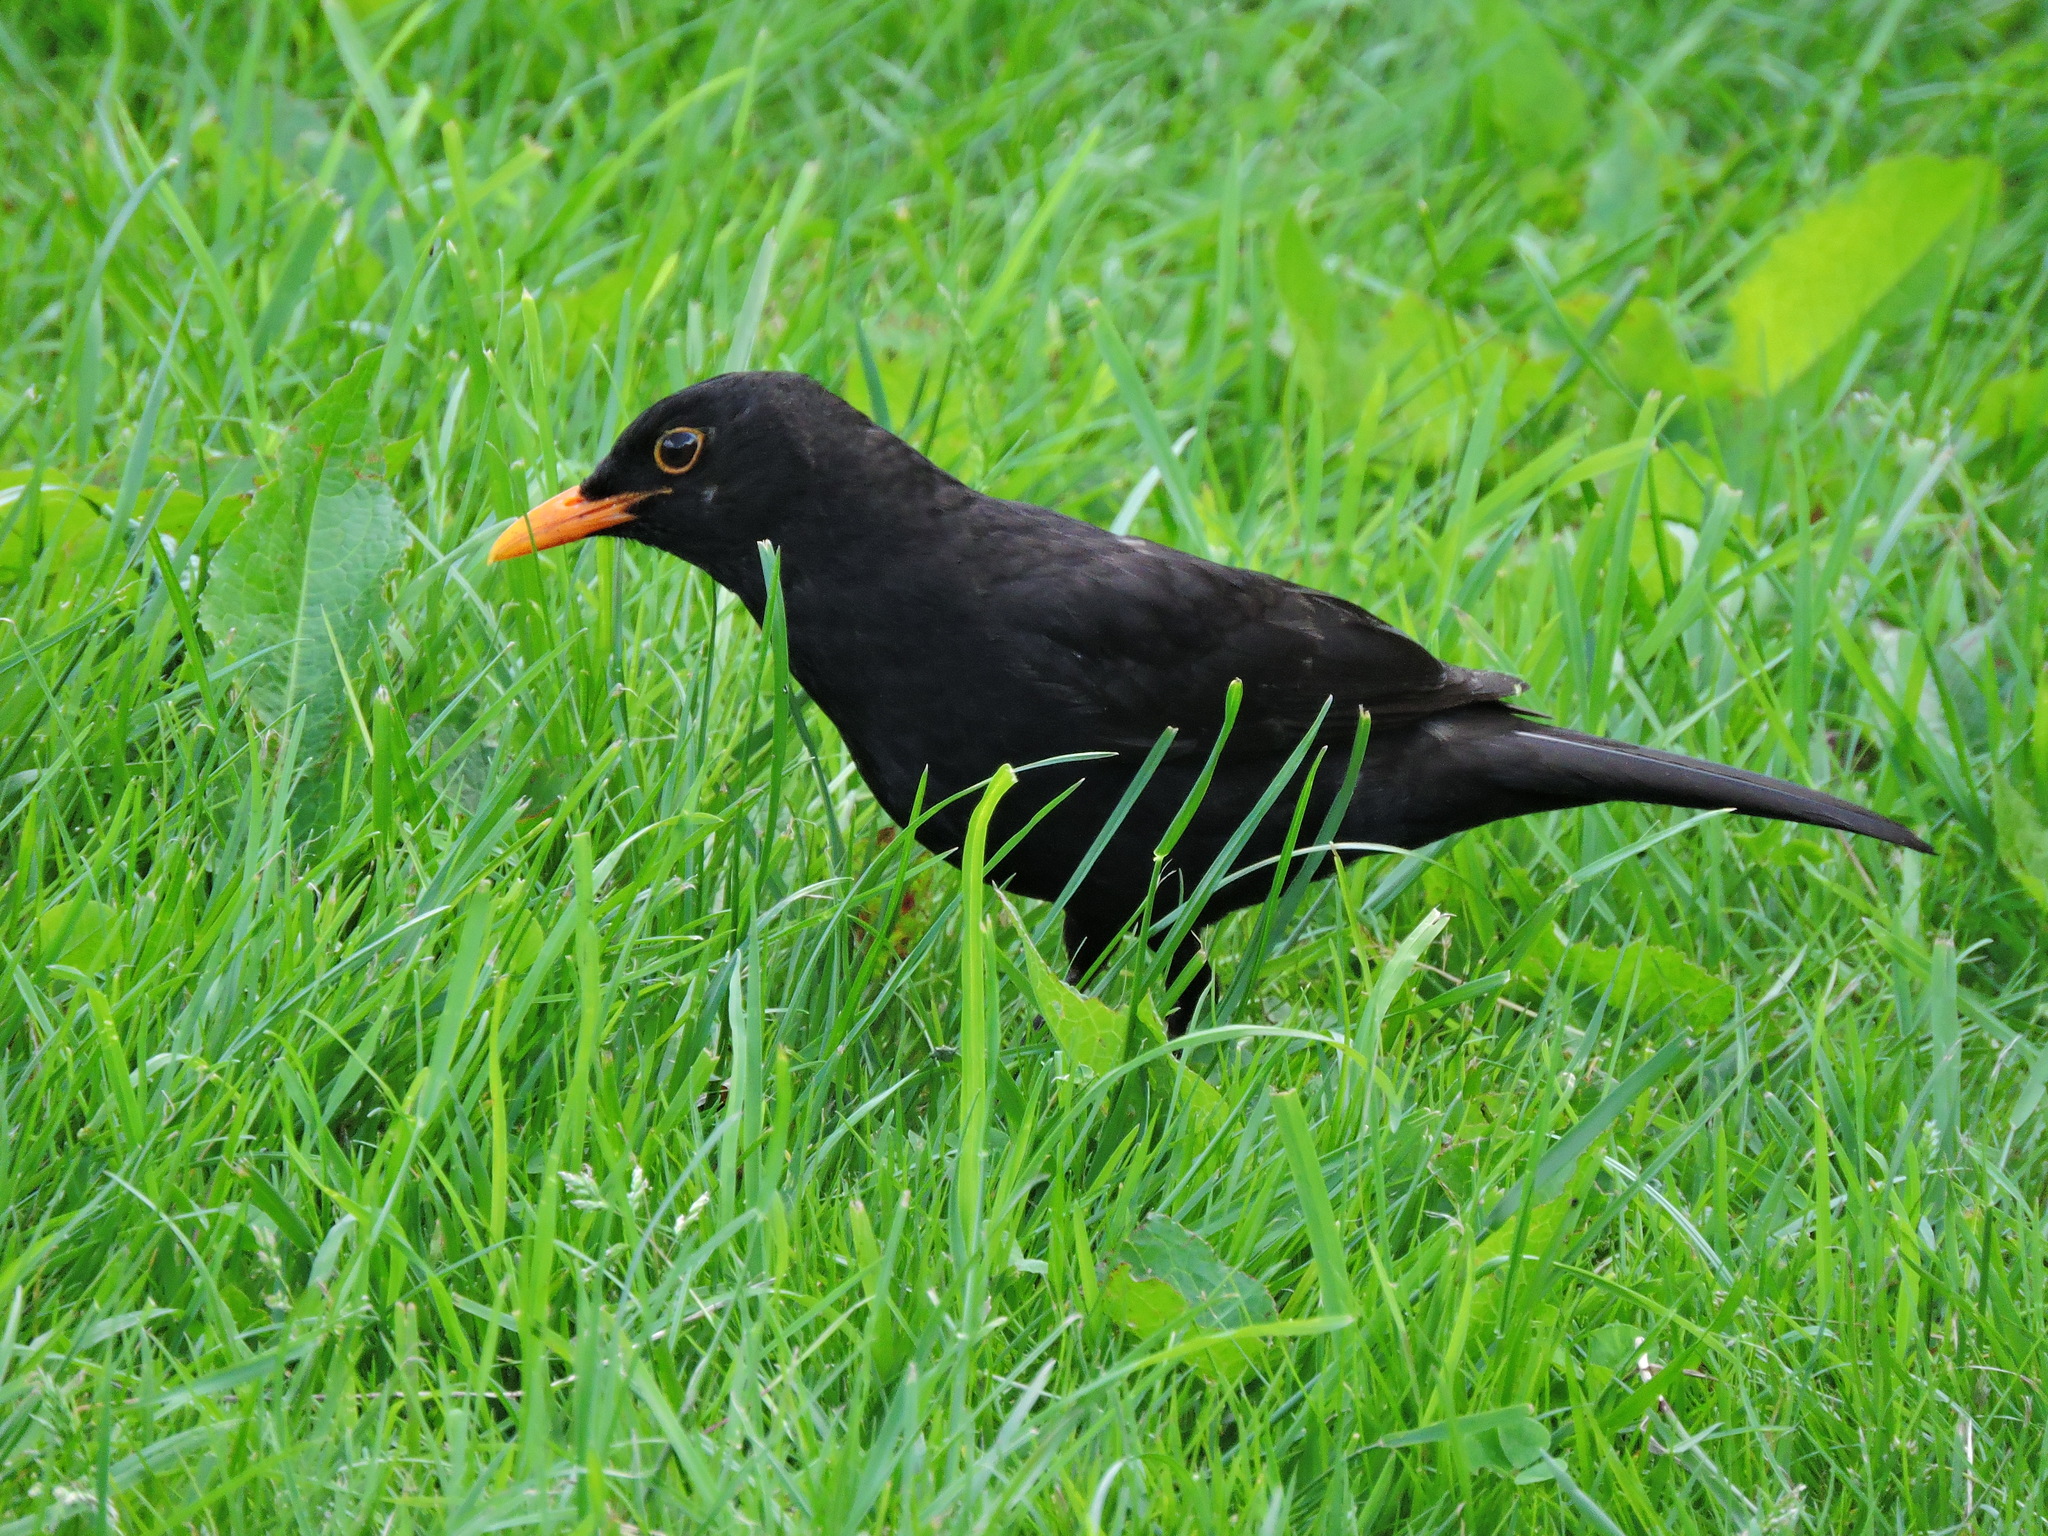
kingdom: Animalia
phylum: Chordata
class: Aves
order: Passeriformes
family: Turdidae
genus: Turdus
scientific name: Turdus merula
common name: Common blackbird
